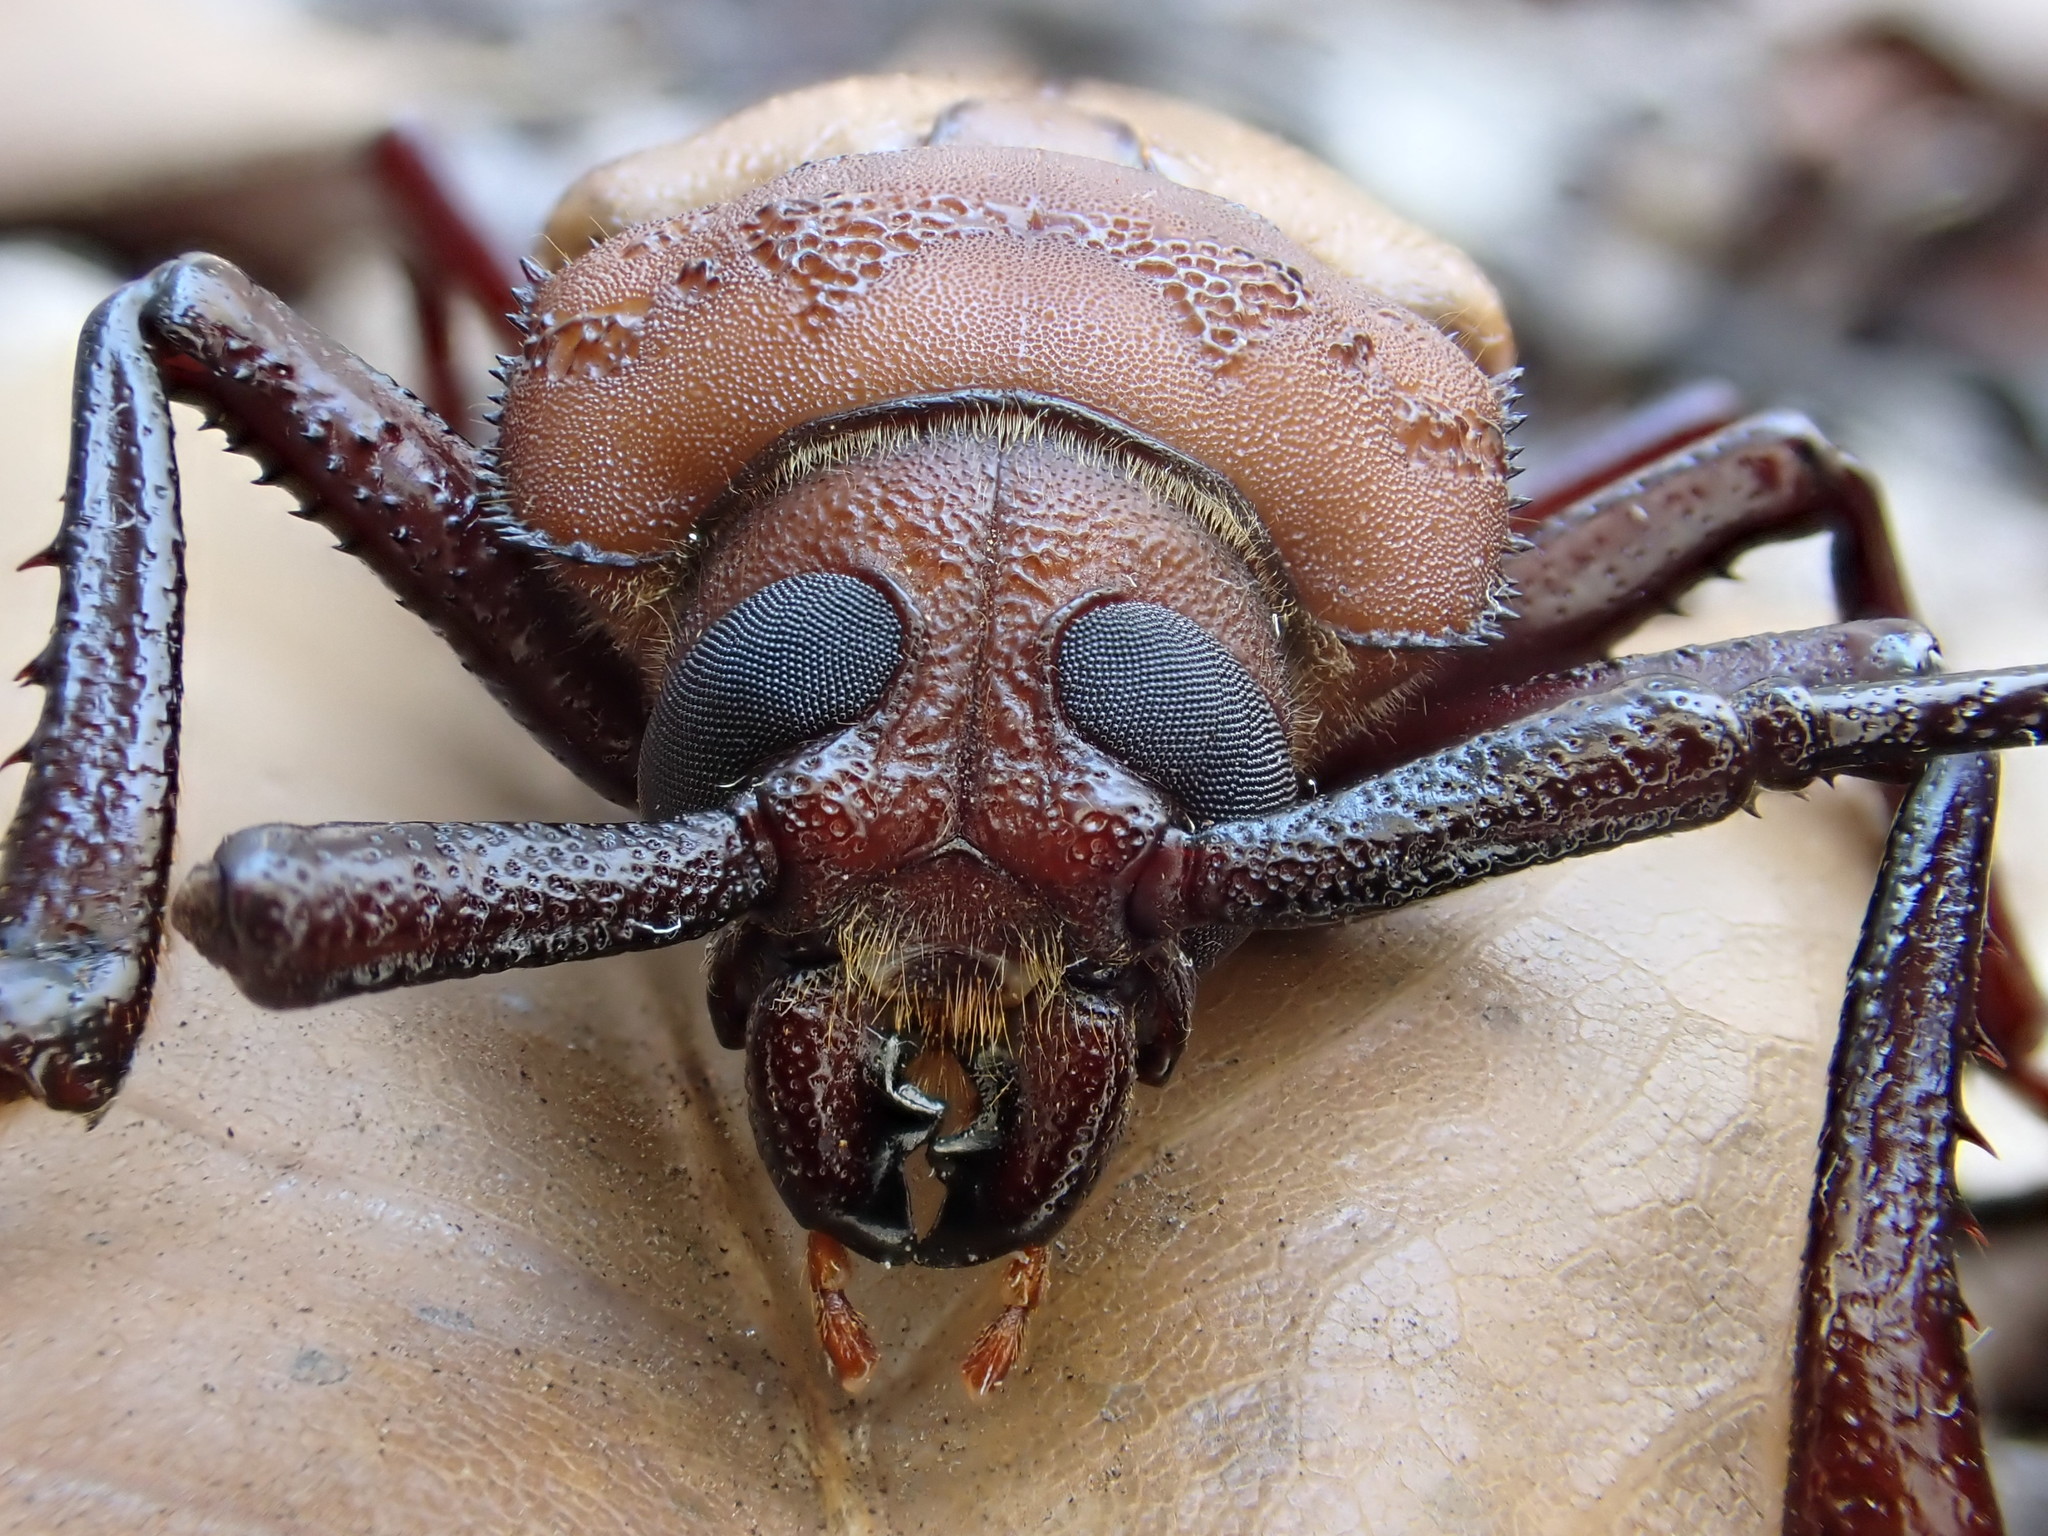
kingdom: Animalia
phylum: Arthropoda
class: Insecta
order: Coleoptera
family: Cerambycidae
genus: Agrianome
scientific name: Agrianome spinicollis
